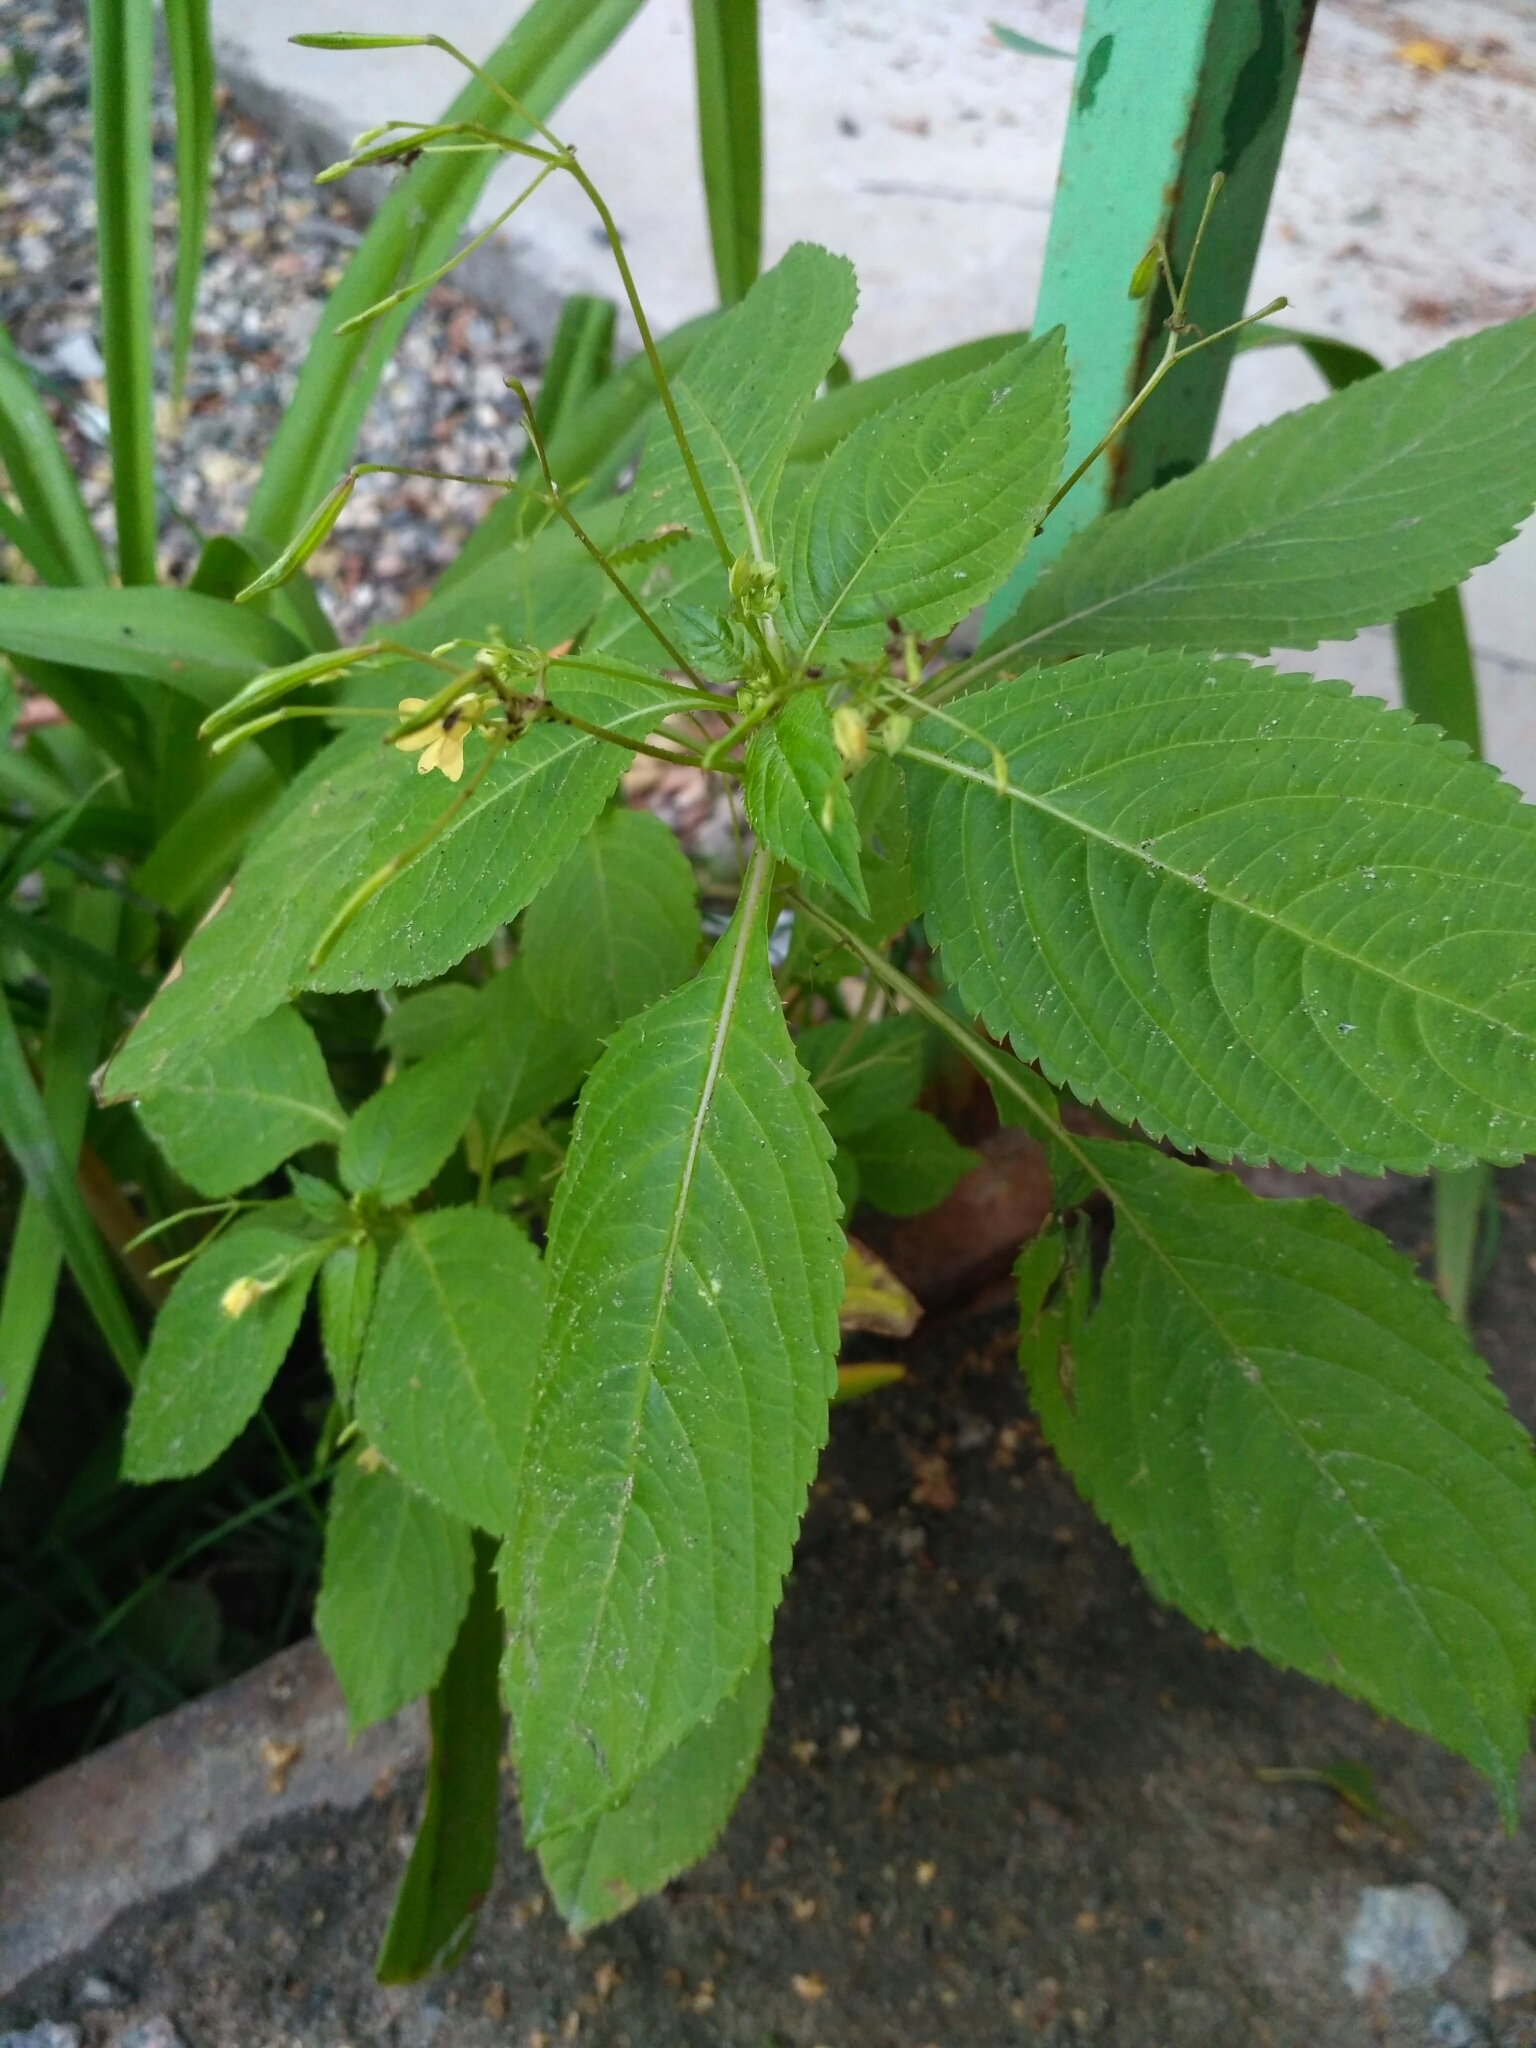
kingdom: Plantae
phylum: Tracheophyta
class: Magnoliopsida
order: Ericales
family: Balsaminaceae
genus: Impatiens
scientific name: Impatiens parviflora
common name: Small balsam
